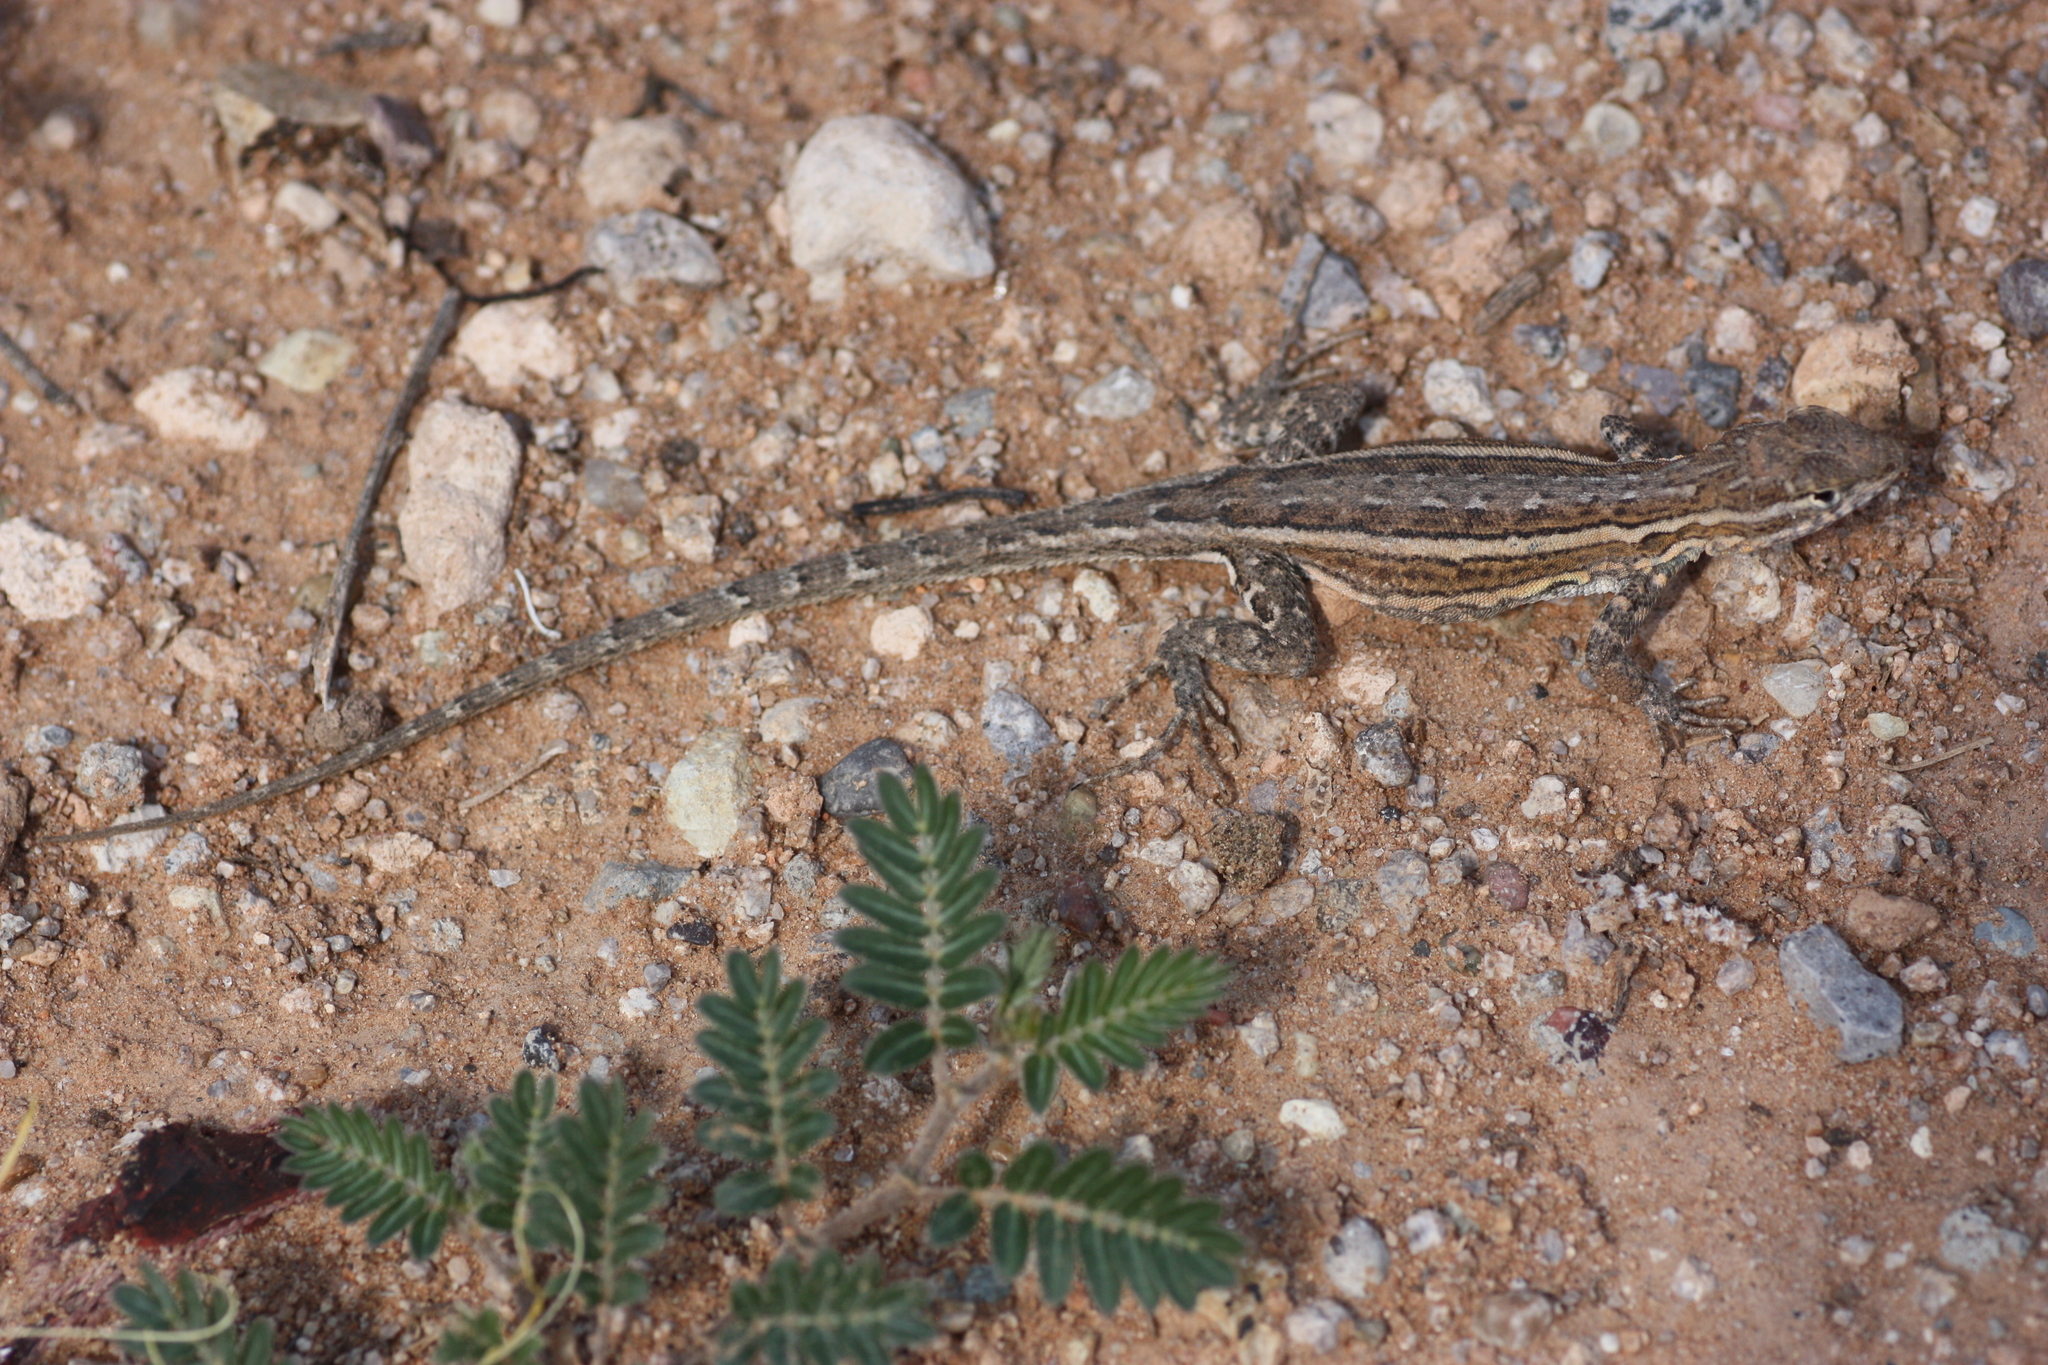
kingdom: Animalia
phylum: Chordata
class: Squamata
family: Phrynosomatidae
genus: Uta
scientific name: Uta stansburiana
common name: Side-blotched lizard
